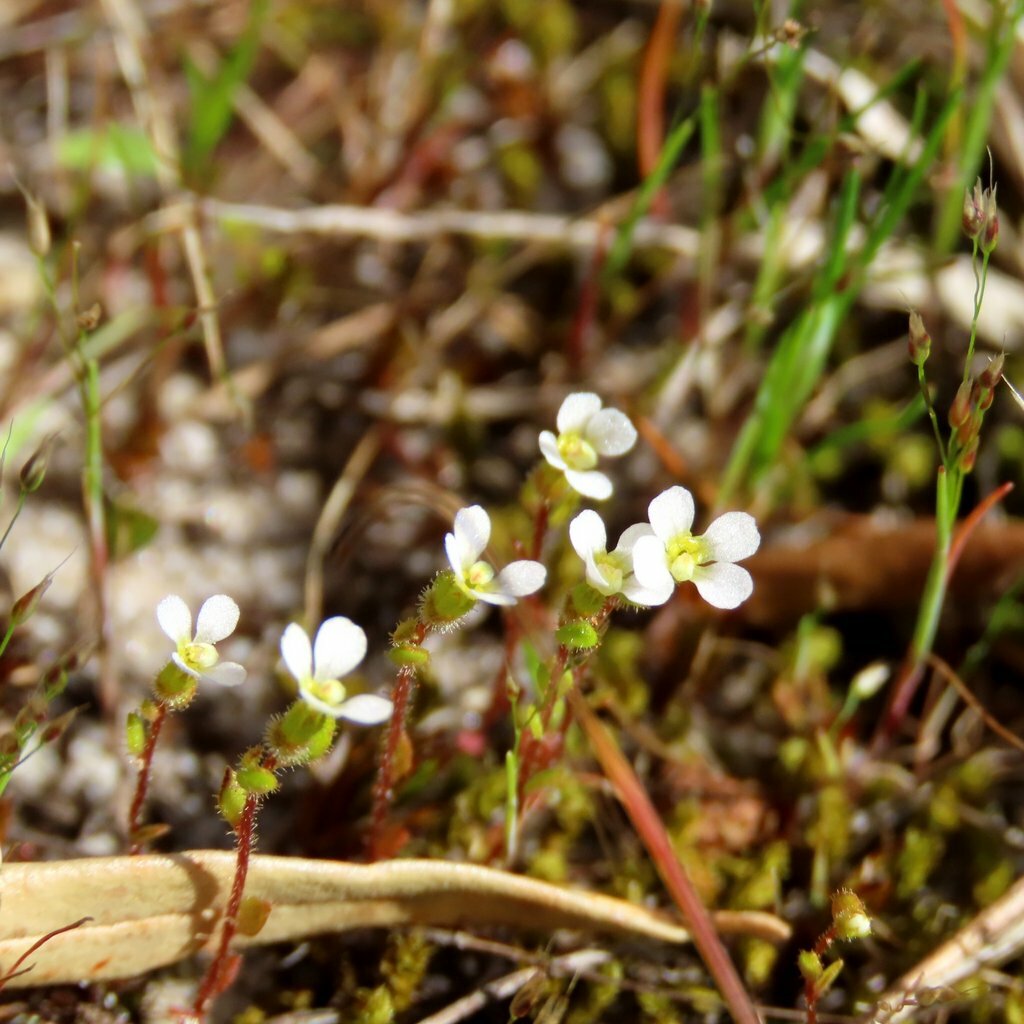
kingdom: Plantae
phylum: Tracheophyta
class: Magnoliopsida
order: Asterales
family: Stylidiaceae
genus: Levenhookia
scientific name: Levenhookia dubia
